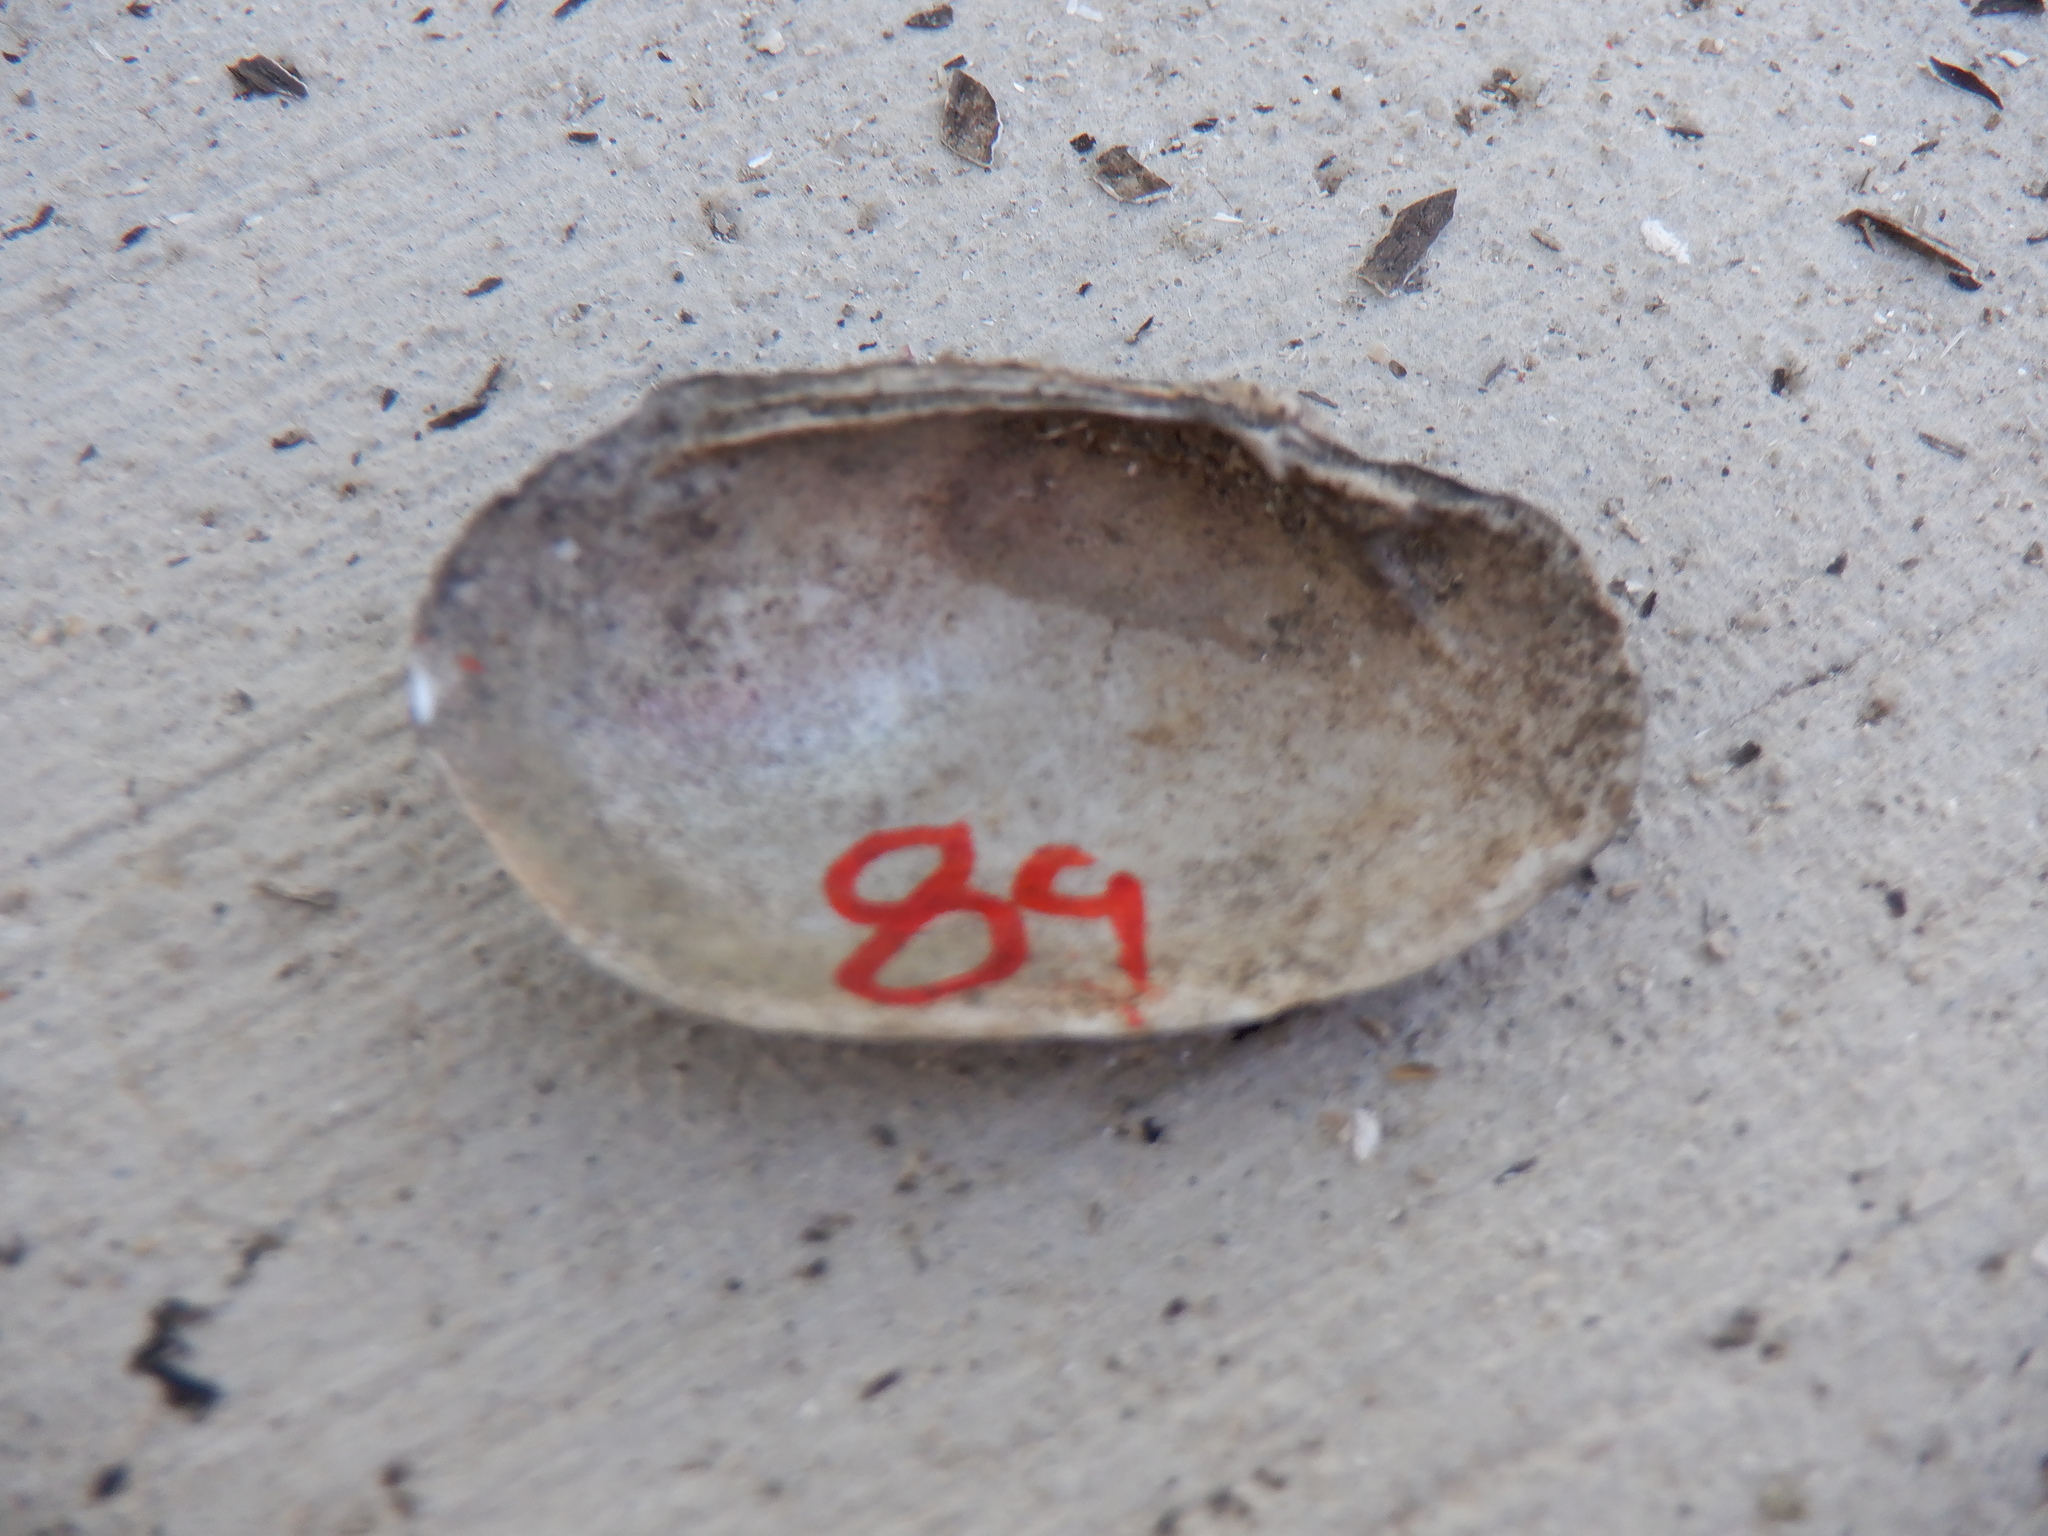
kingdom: Animalia
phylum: Mollusca
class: Bivalvia
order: Unionida
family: Unionidae
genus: Toxolasma
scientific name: Toxolasma parvum
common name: Lilliput
